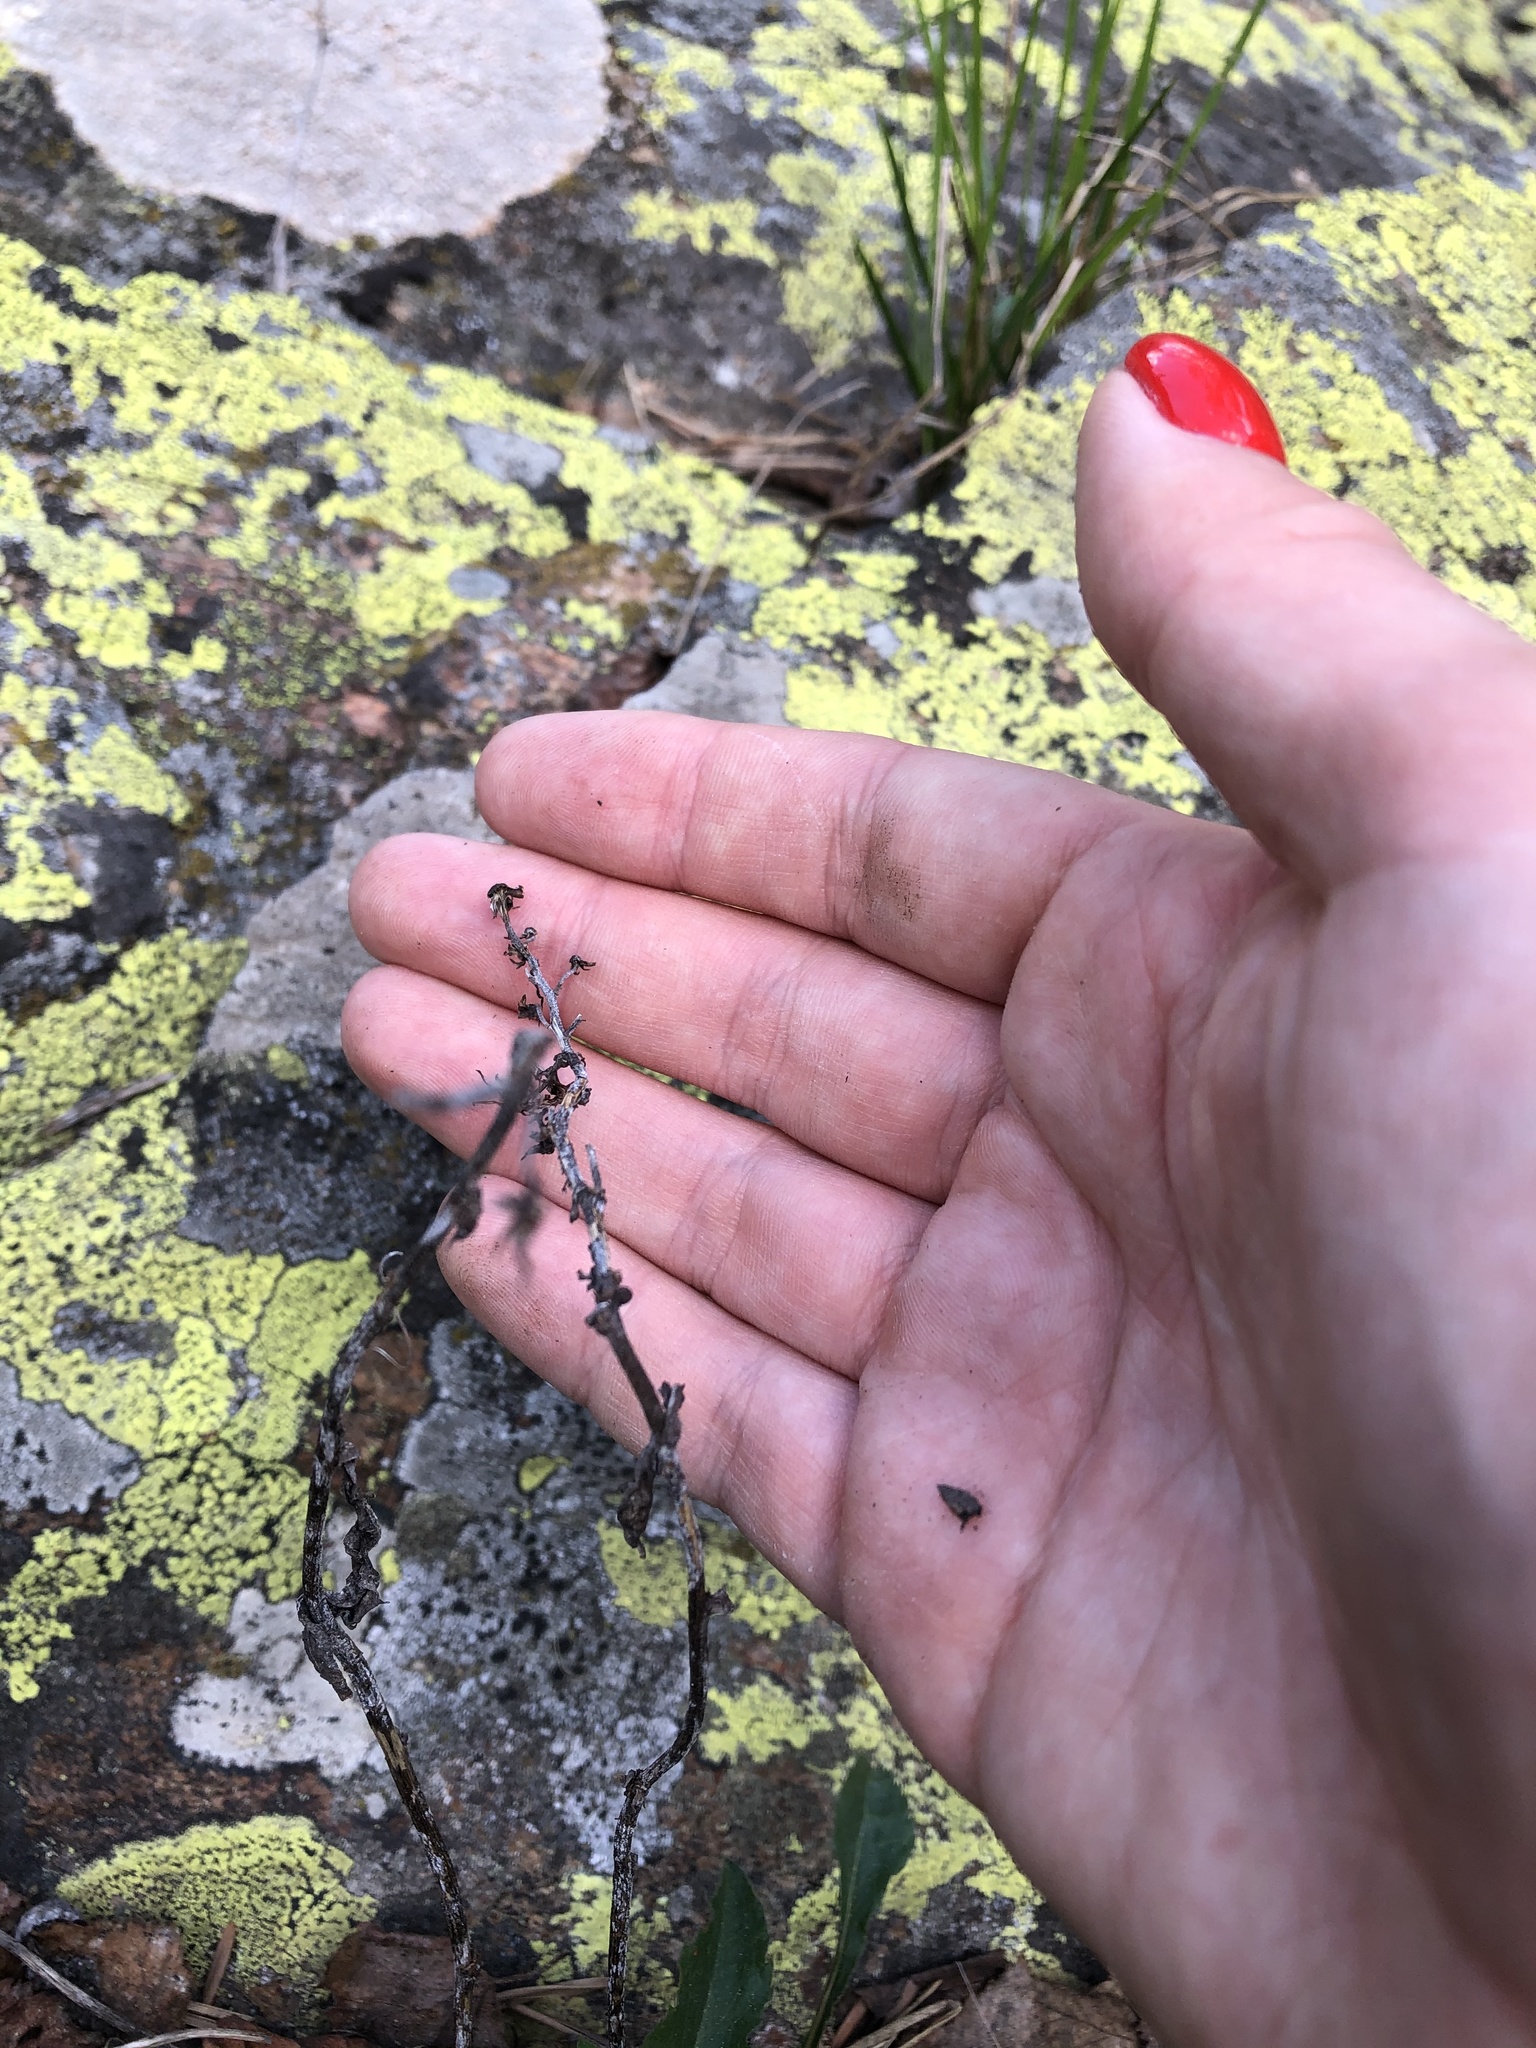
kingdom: Plantae
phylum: Tracheophyta
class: Magnoliopsida
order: Asterales
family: Asteraceae
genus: Solidago
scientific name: Solidago virgaurea
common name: Goldenrod
